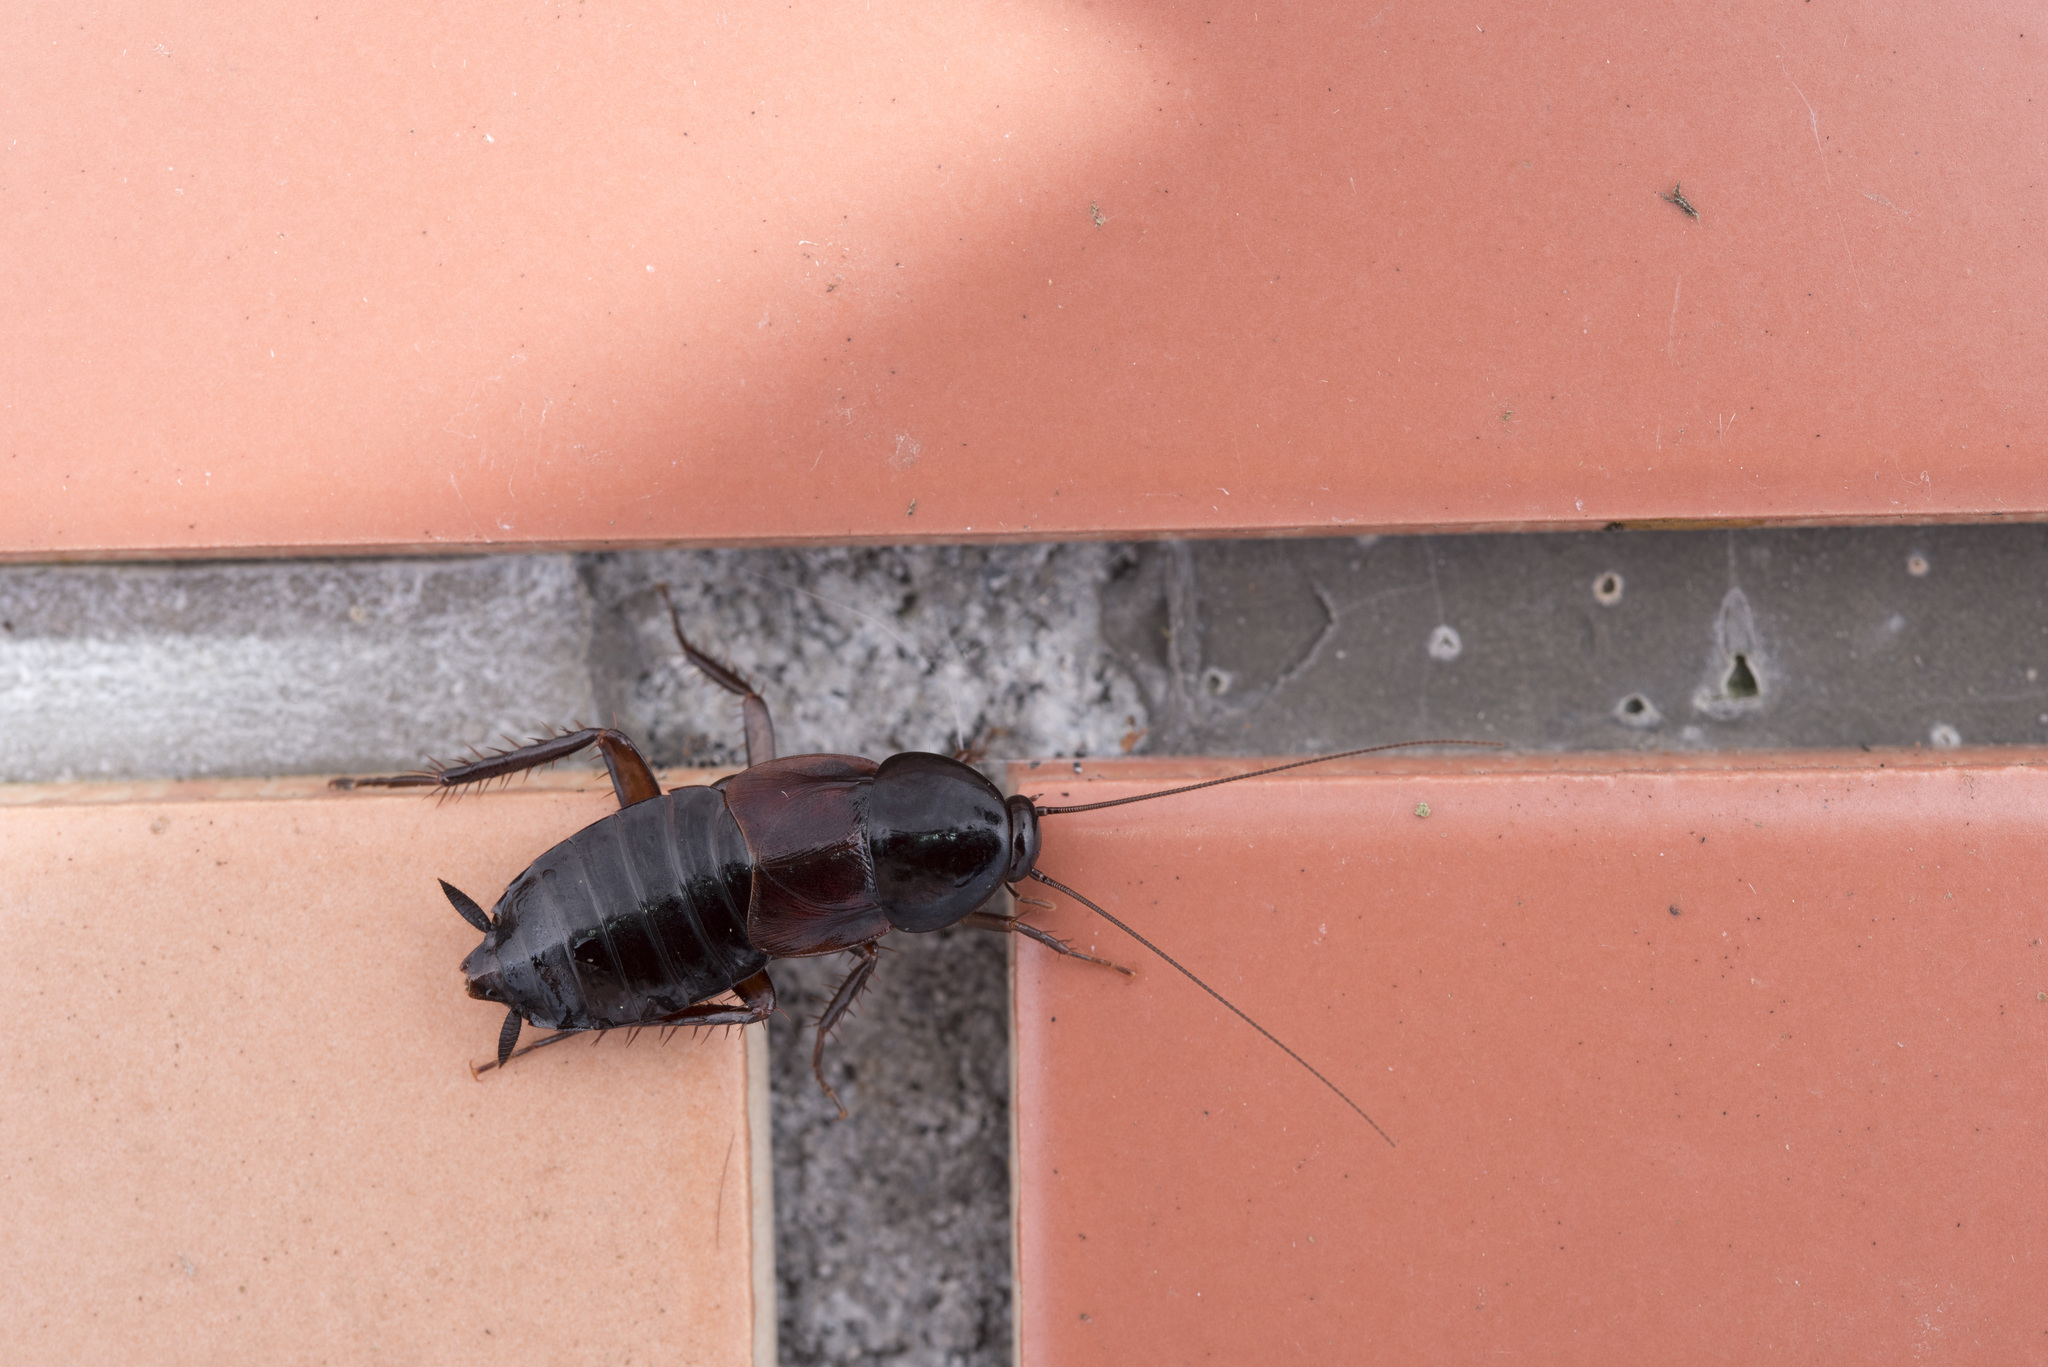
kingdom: Animalia
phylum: Arthropoda
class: Insecta
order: Blattodea
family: Blattidae
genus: Periplaneta
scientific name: Periplaneta arisanica
